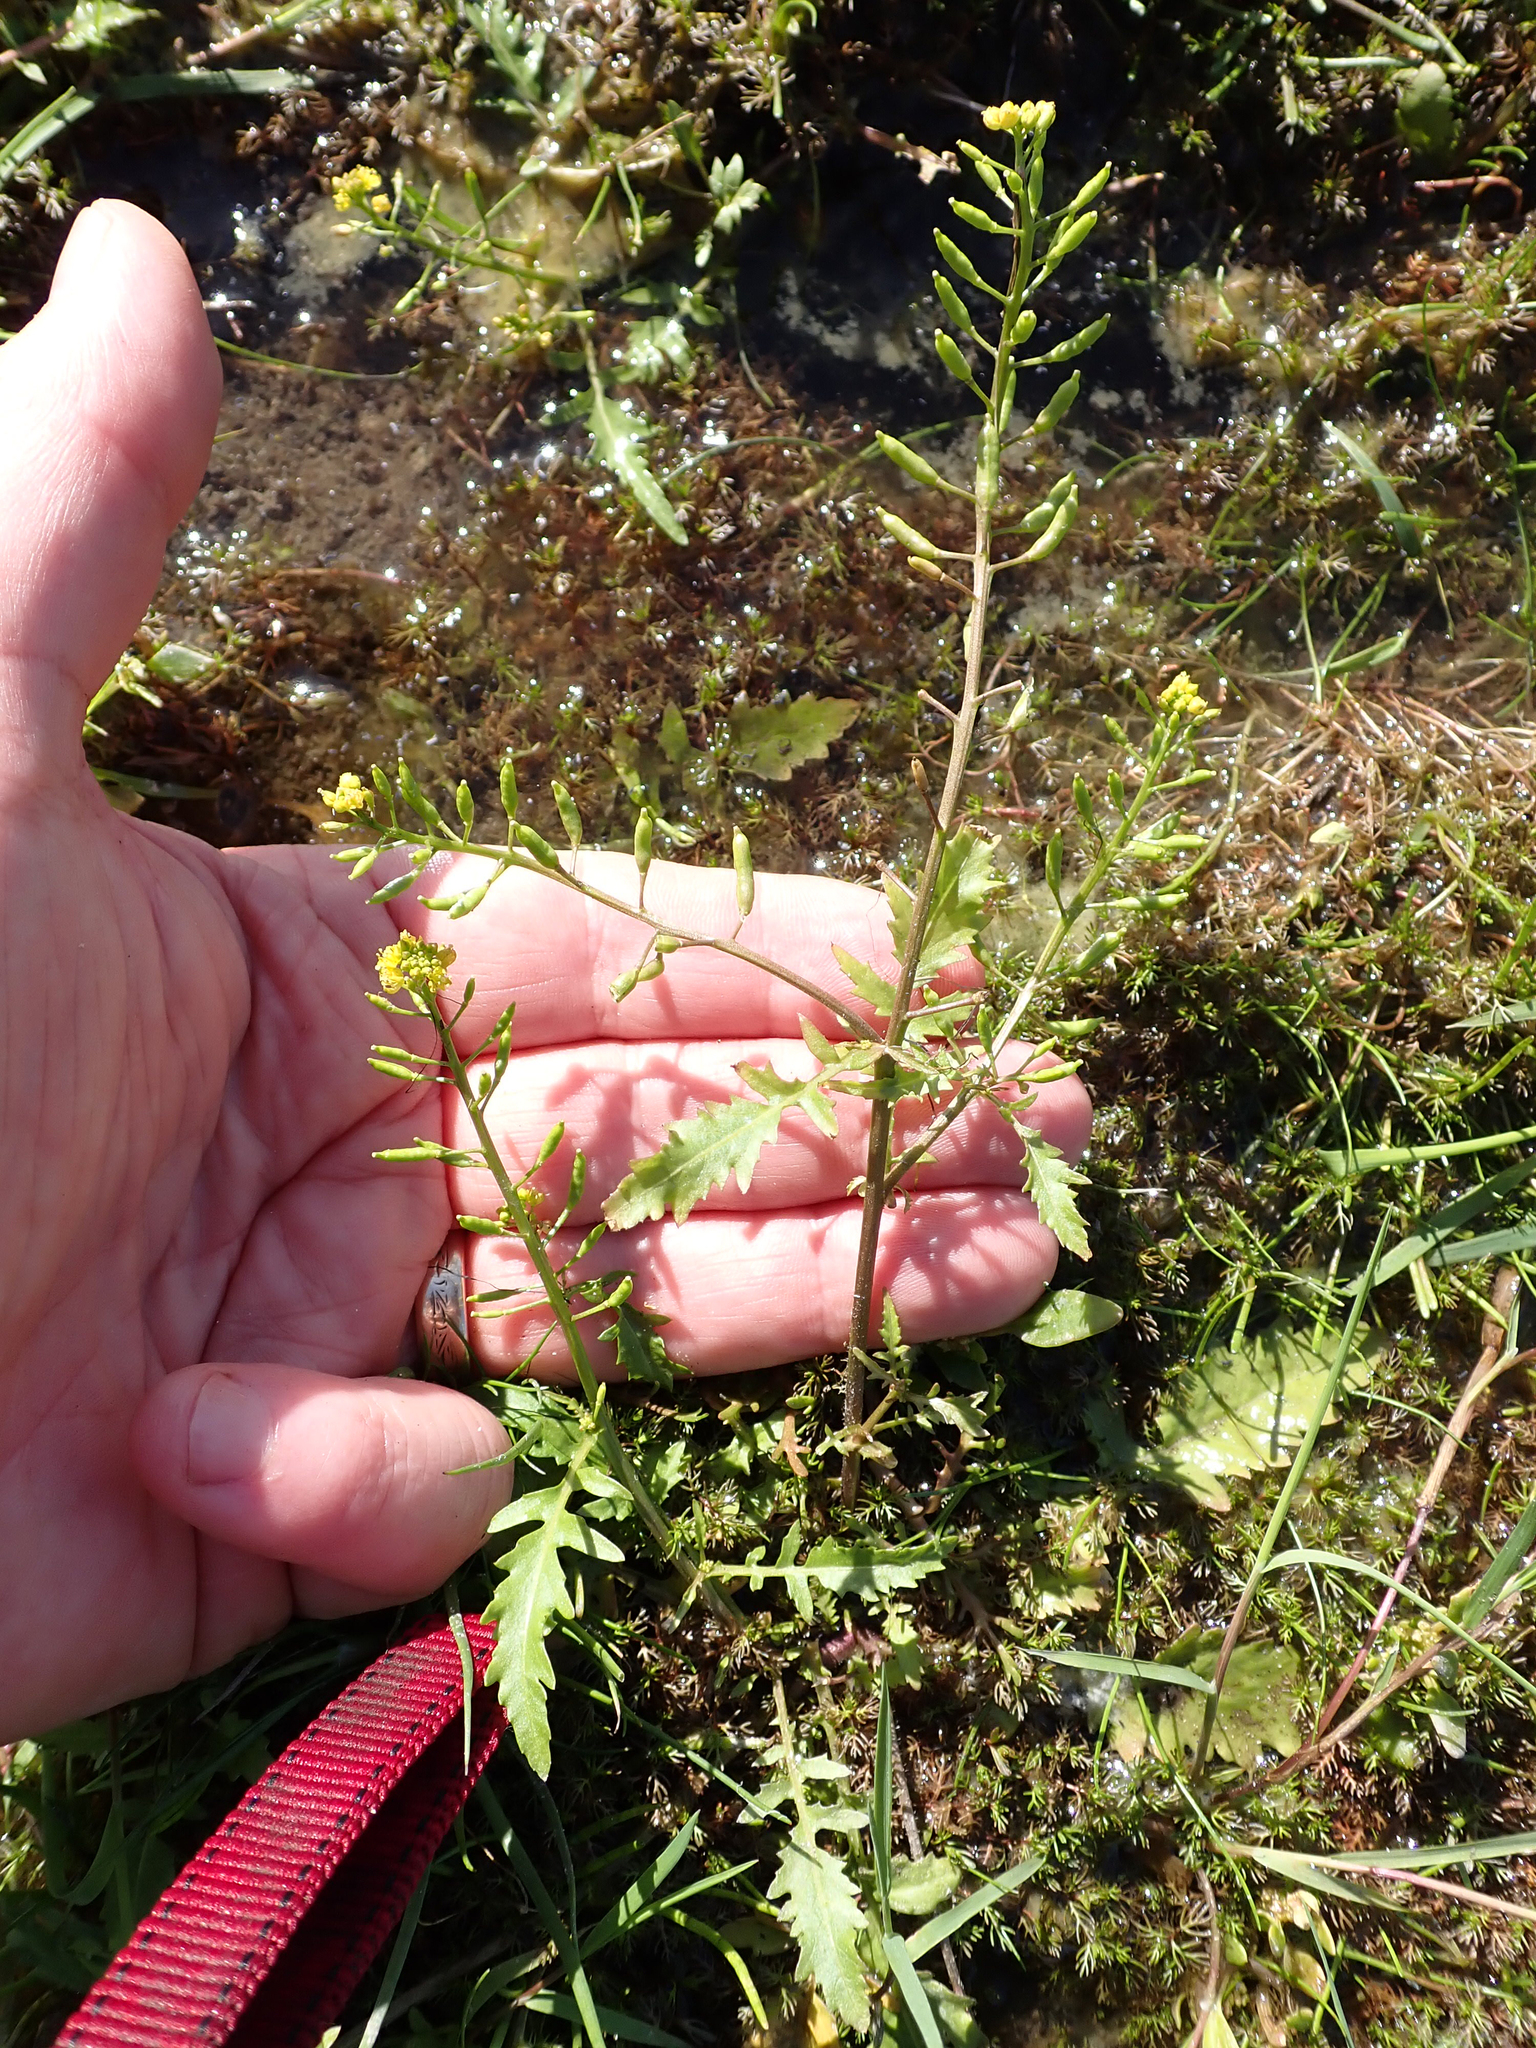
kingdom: Plantae
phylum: Tracheophyta
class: Magnoliopsida
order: Brassicales
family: Brassicaceae
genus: Rorippa
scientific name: Rorippa palustris
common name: Marsh yellow-cress
